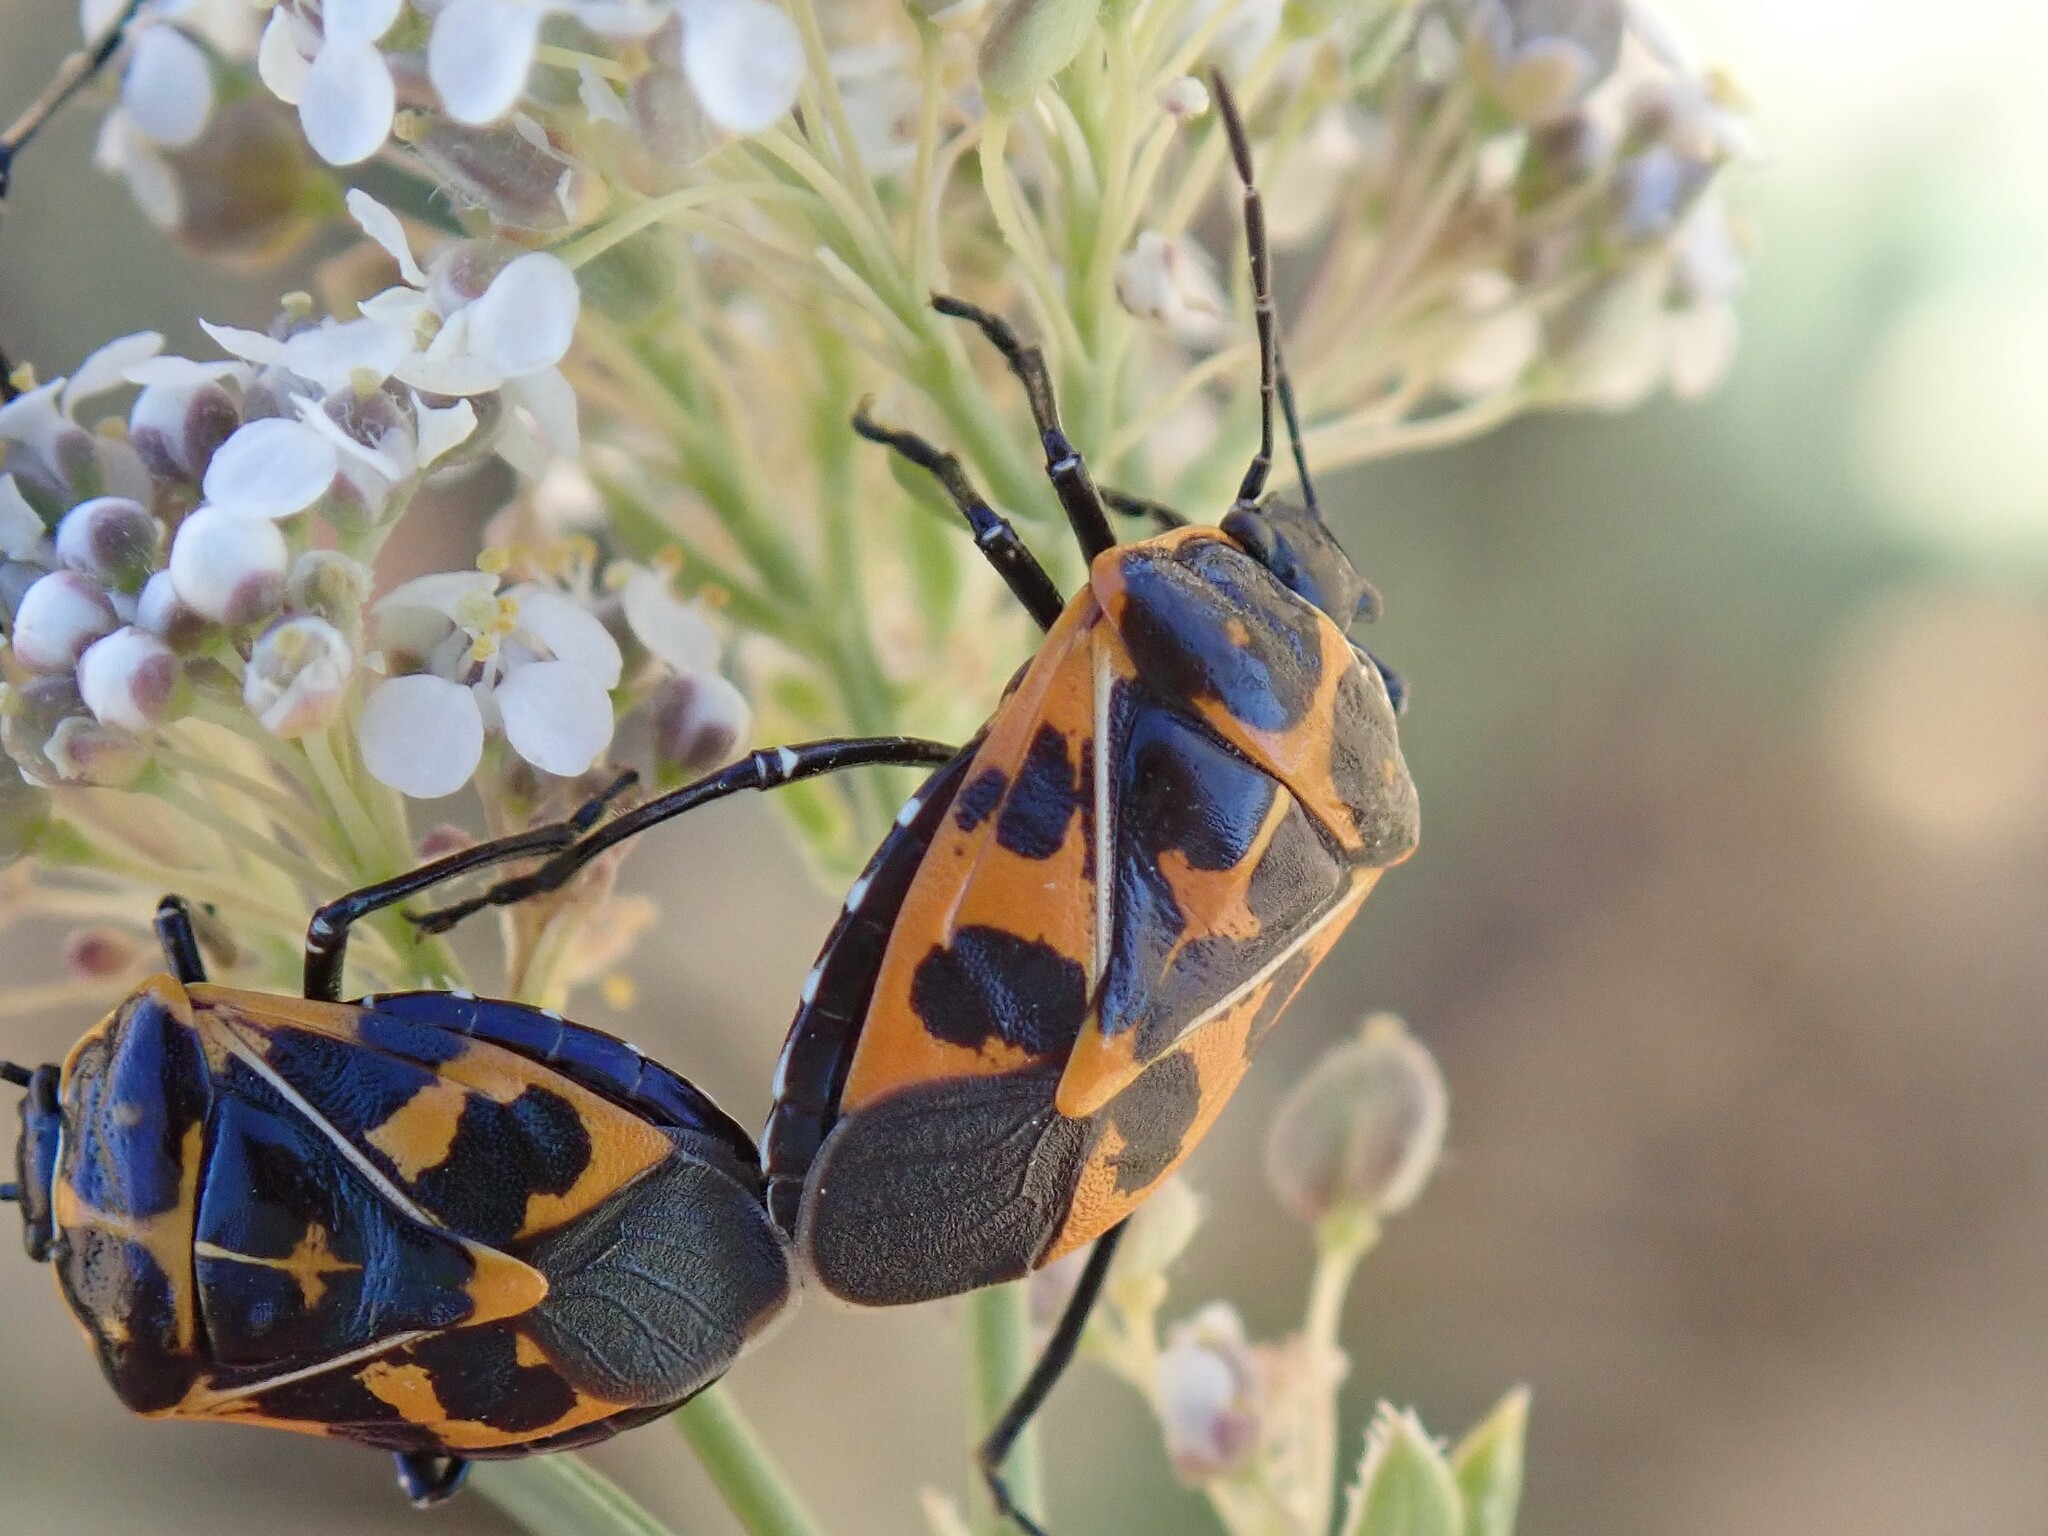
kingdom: Animalia
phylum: Arthropoda
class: Insecta
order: Hemiptera
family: Pentatomidae
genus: Murgantia
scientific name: Murgantia histrionica
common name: Harlequin bug
